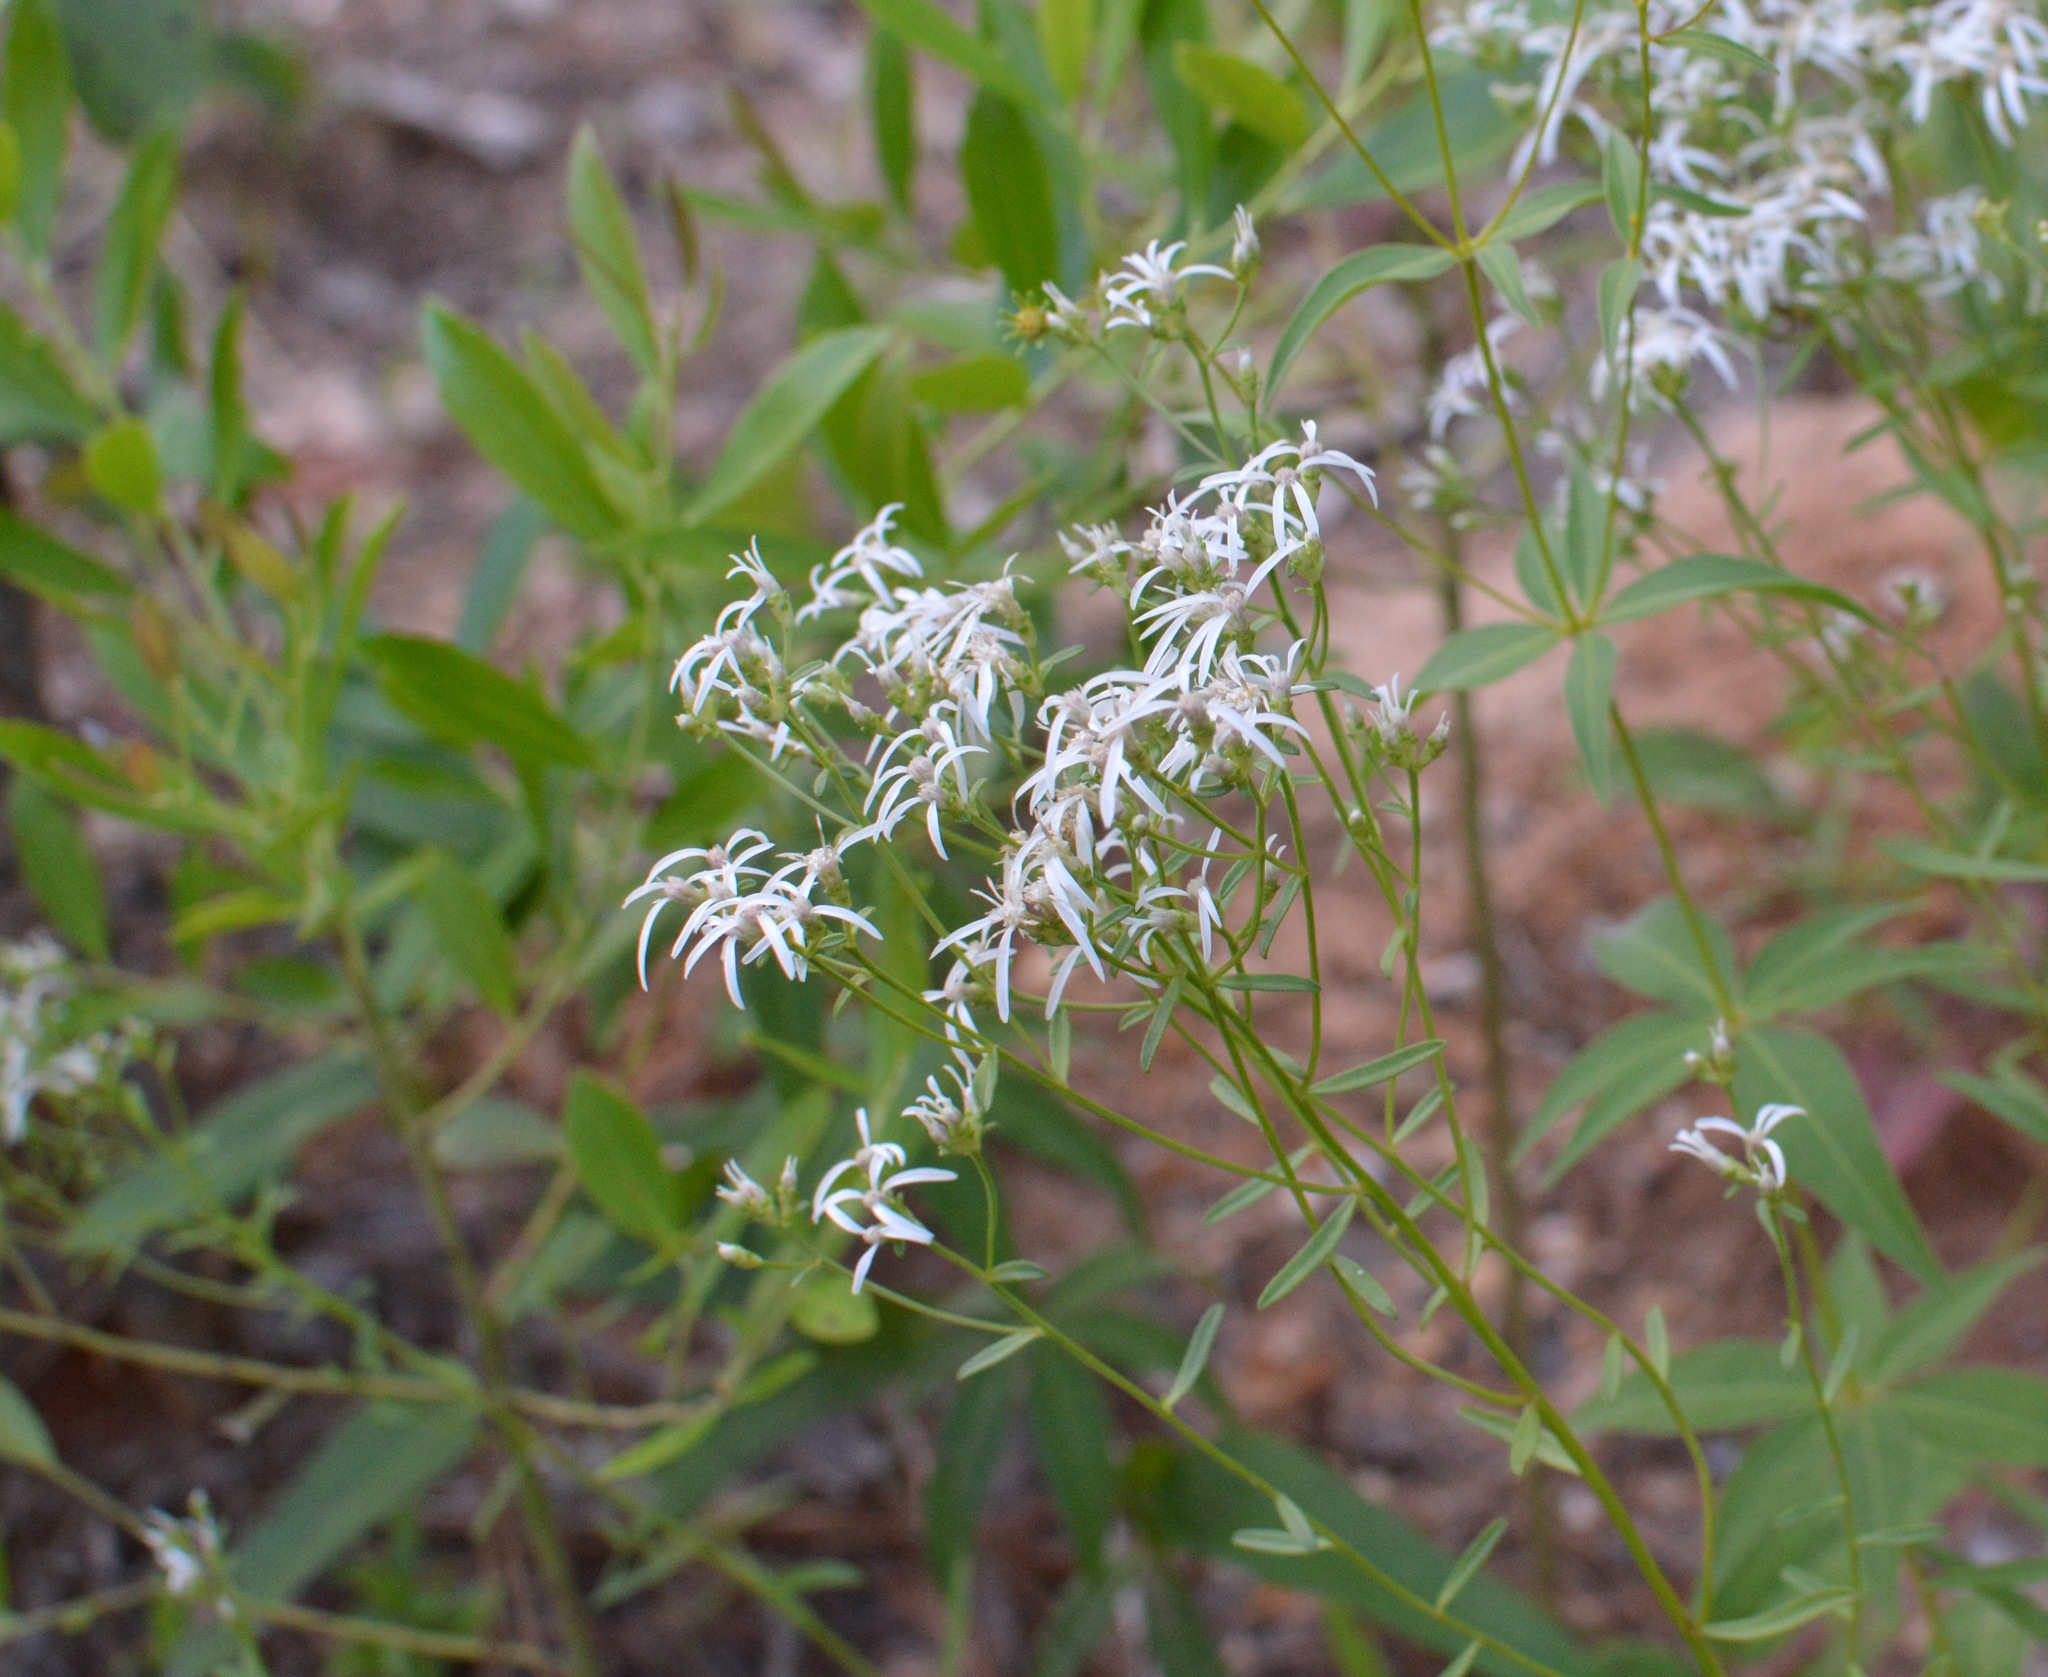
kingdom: Plantae
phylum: Tracheophyta
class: Magnoliopsida
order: Asterales
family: Asteraceae
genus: Sericocarpus
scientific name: Sericocarpus linifolius
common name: Narrow-leaf aster
